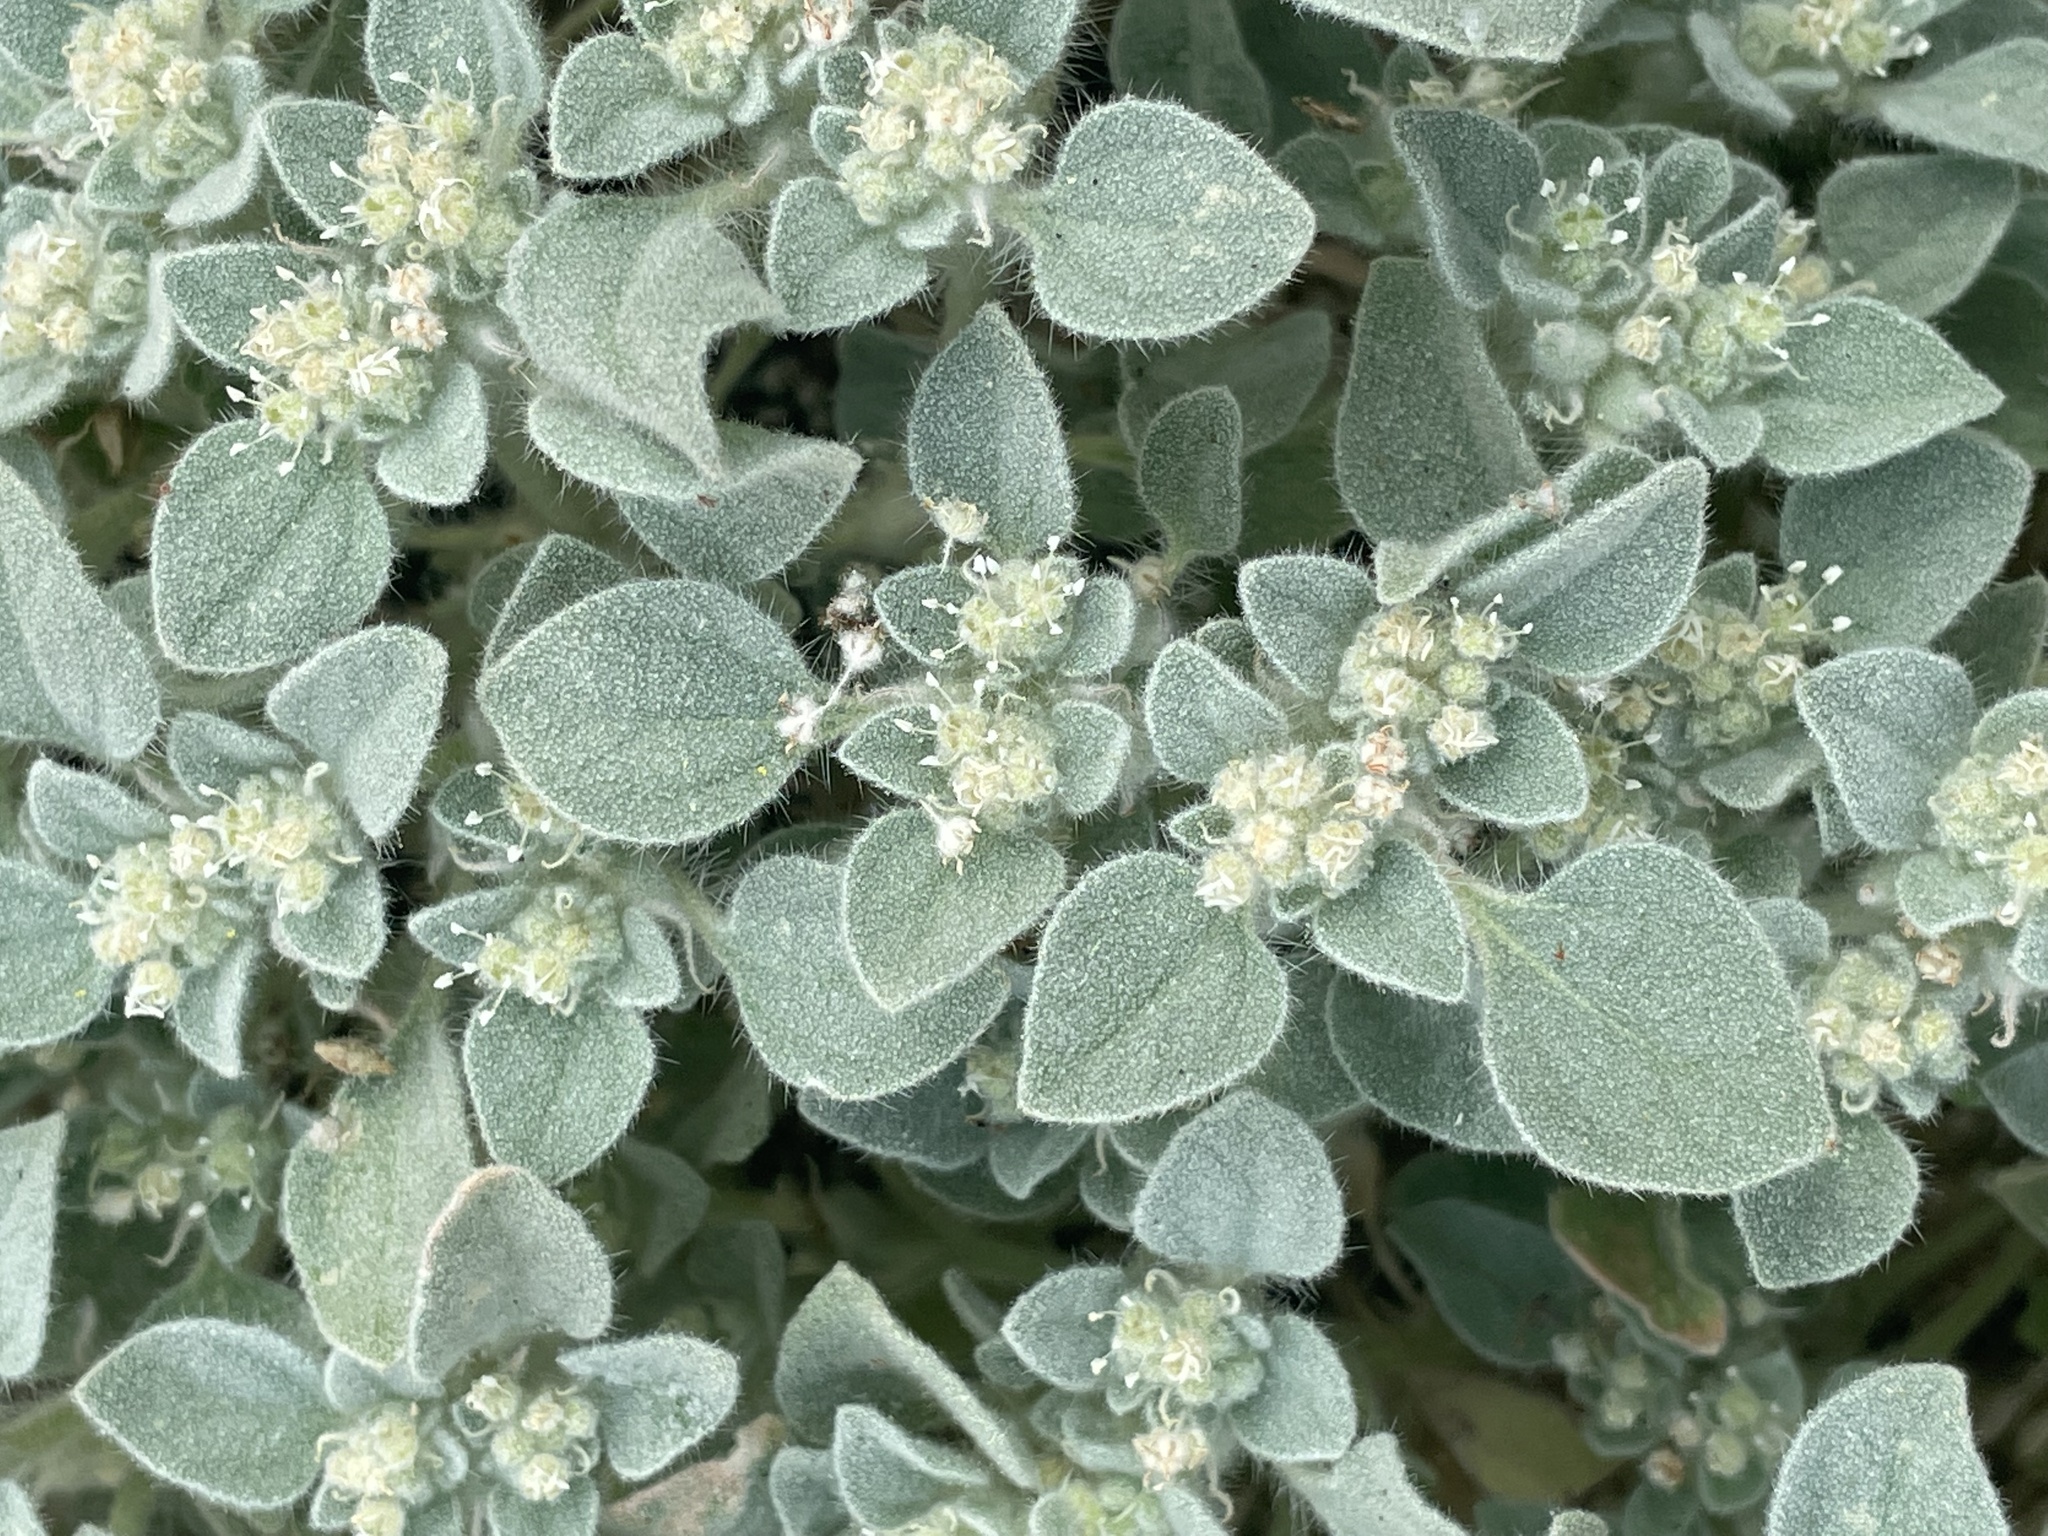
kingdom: Plantae
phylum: Tracheophyta
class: Magnoliopsida
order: Malpighiales
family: Euphorbiaceae
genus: Croton
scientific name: Croton setiger
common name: Dove weed
